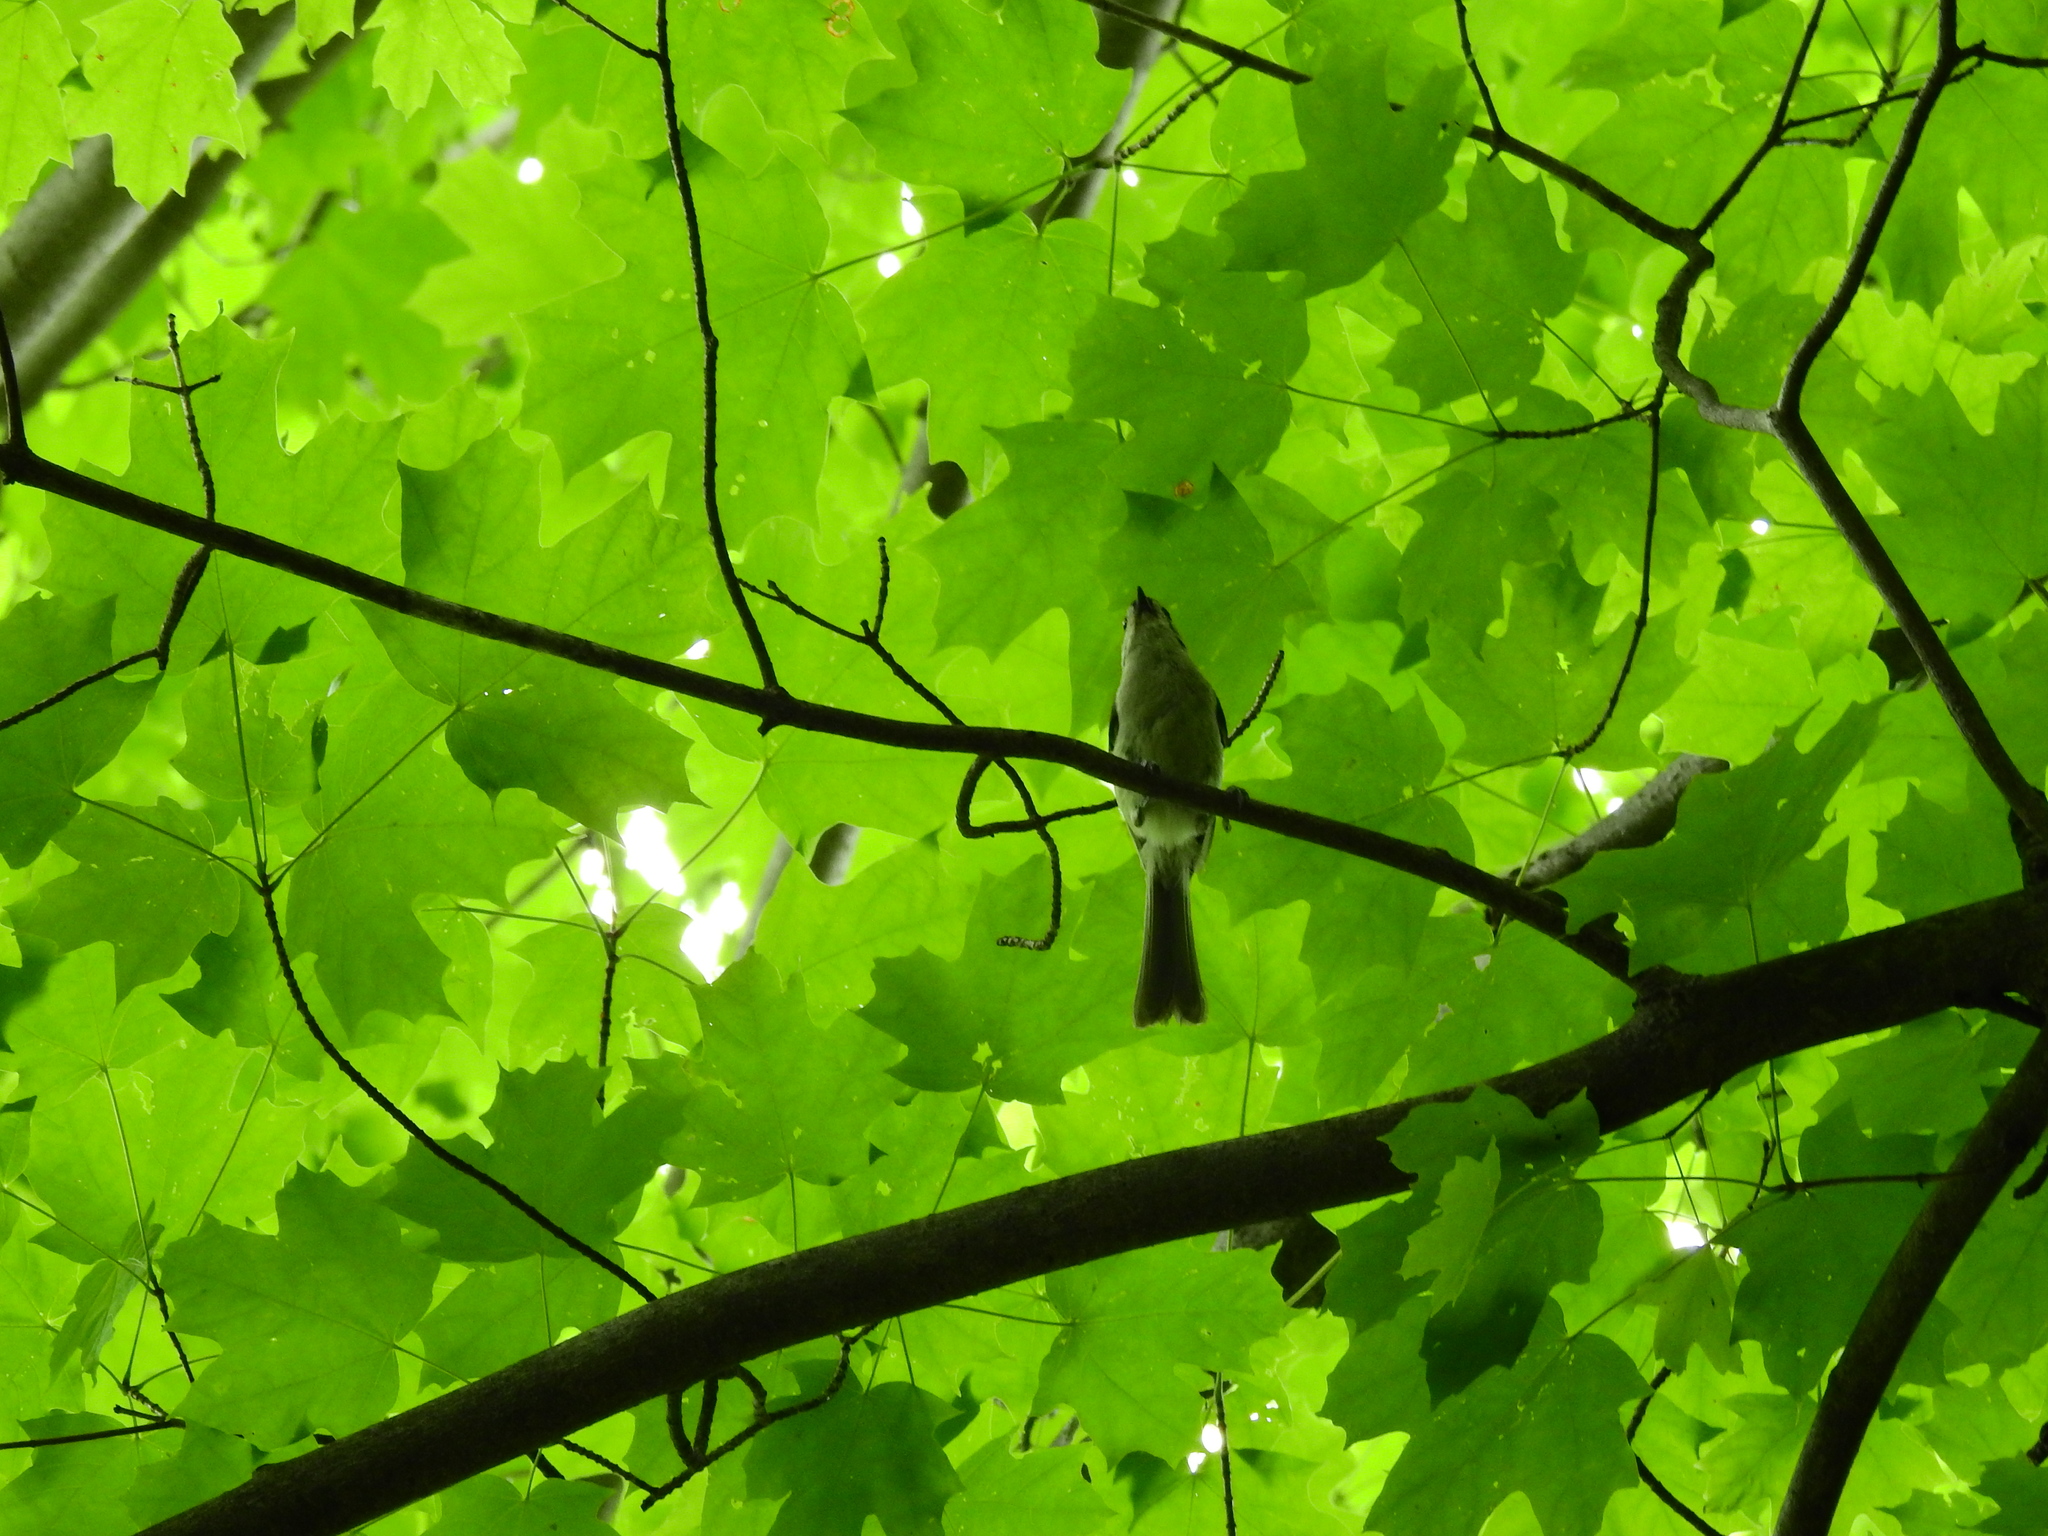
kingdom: Animalia
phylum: Chordata
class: Aves
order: Passeriformes
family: Paridae
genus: Baeolophus
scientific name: Baeolophus bicolor
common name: Tufted titmouse
